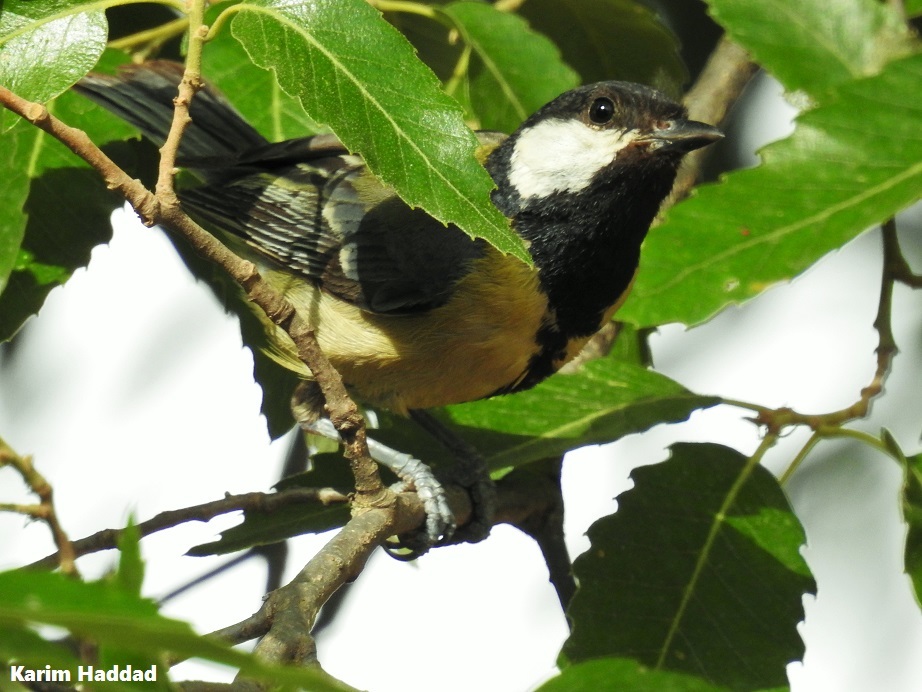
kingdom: Animalia
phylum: Chordata
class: Aves
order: Passeriformes
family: Paridae
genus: Parus
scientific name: Parus major
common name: Great tit
